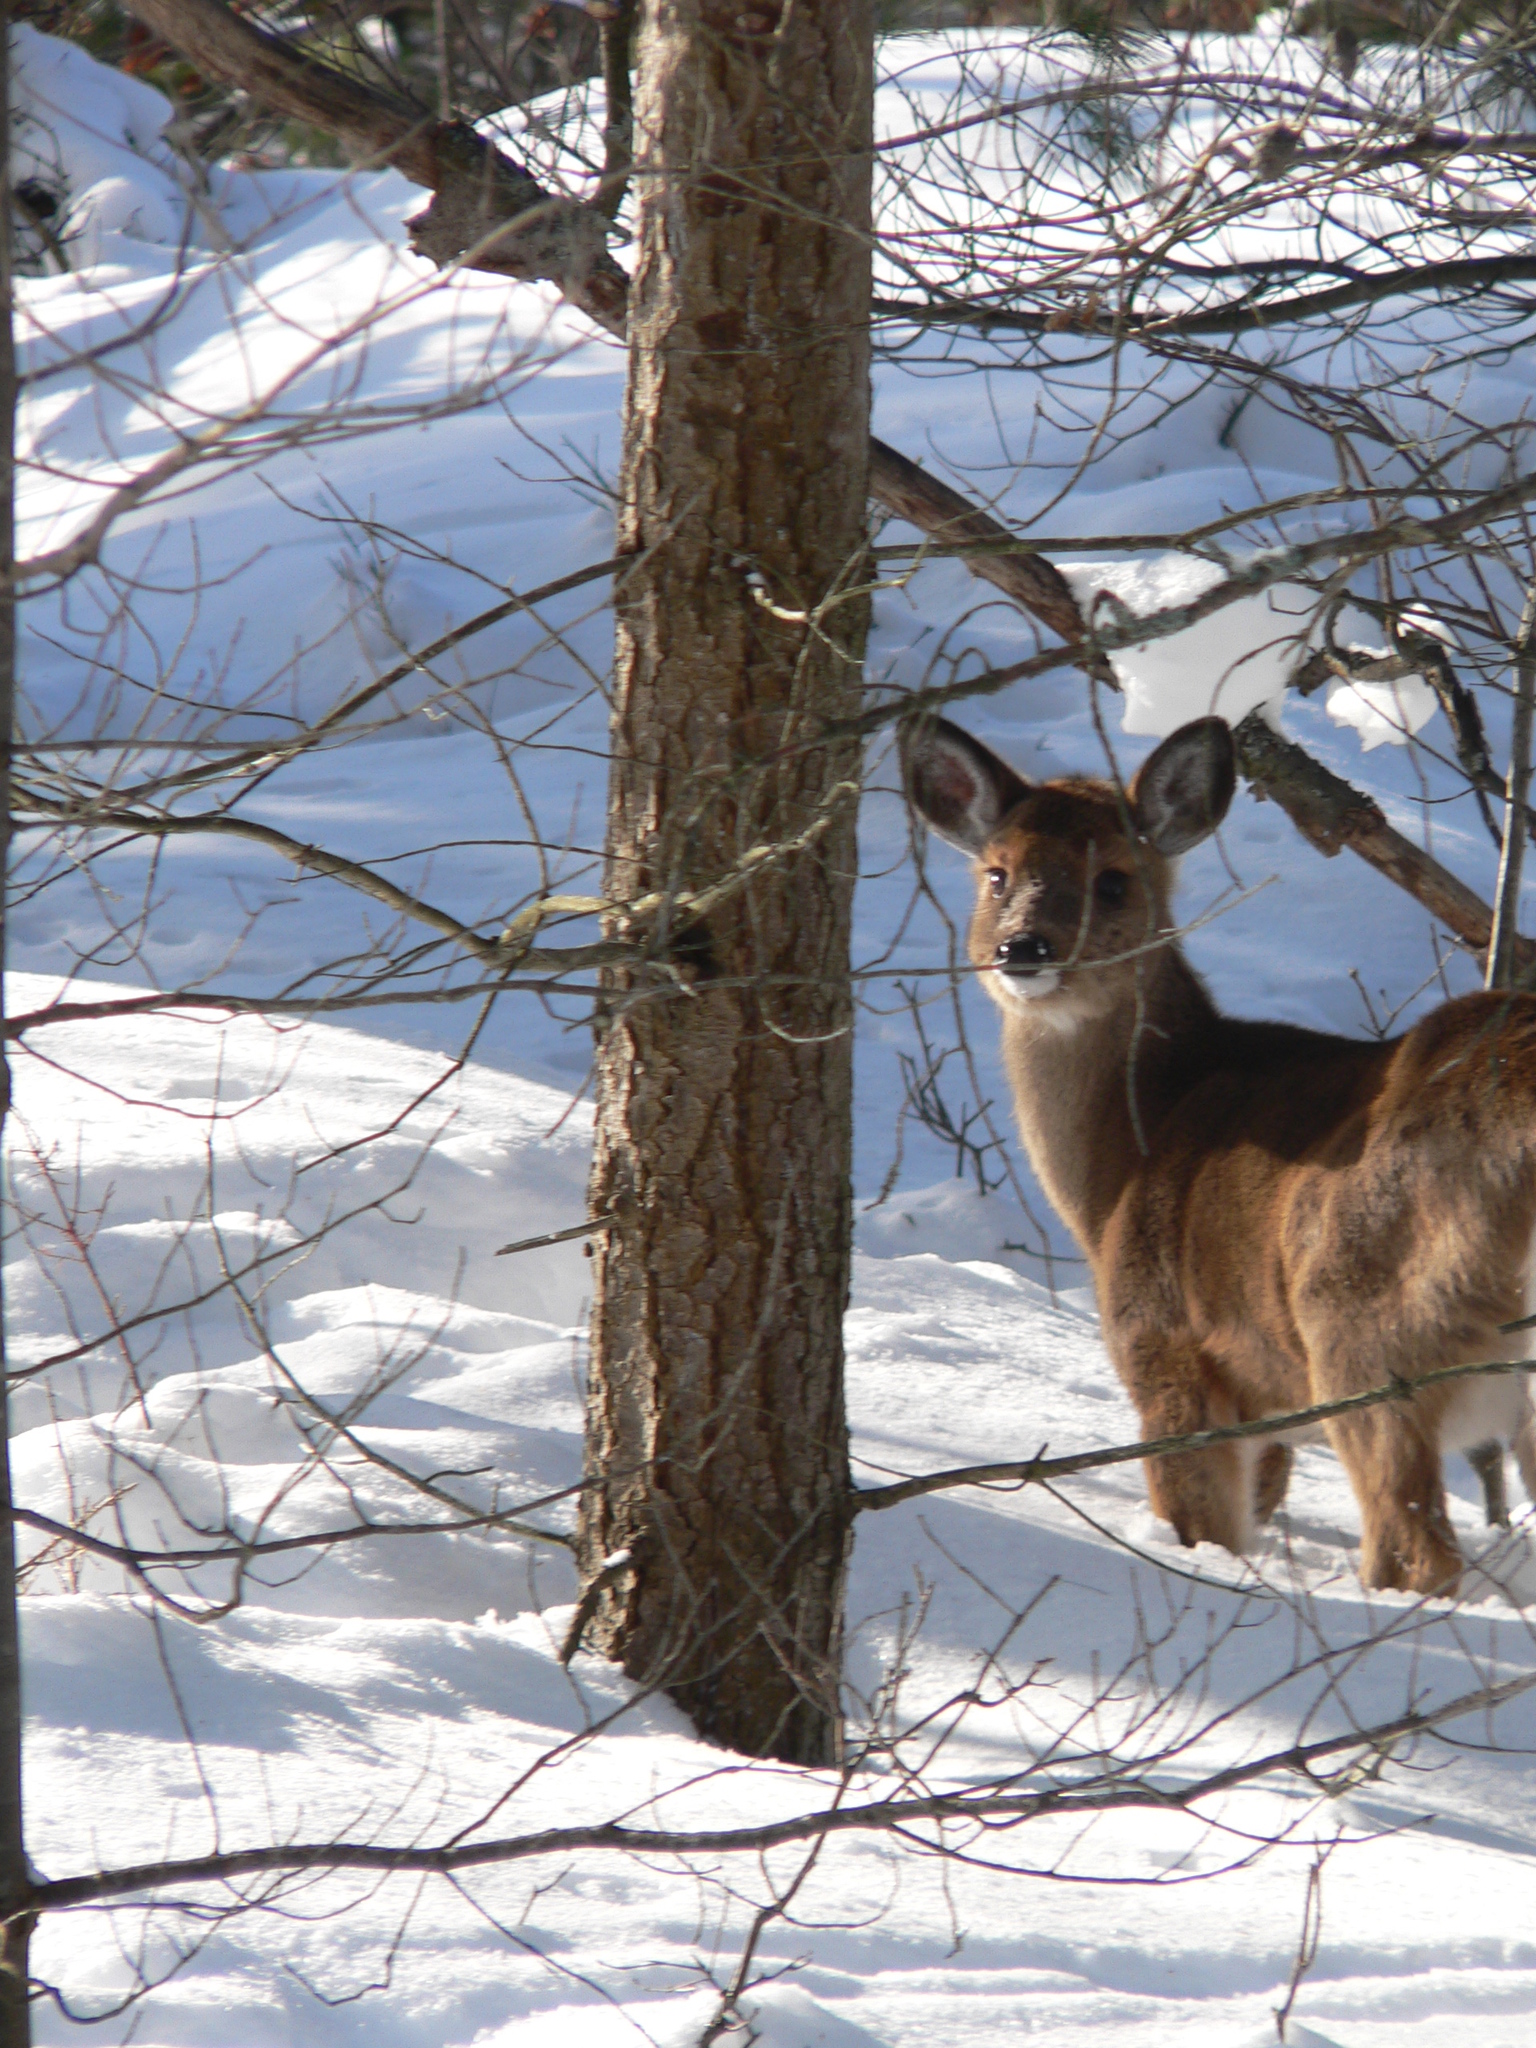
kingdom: Animalia
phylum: Chordata
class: Mammalia
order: Artiodactyla
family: Cervidae
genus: Odocoileus
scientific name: Odocoileus virginianus
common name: White-tailed deer
